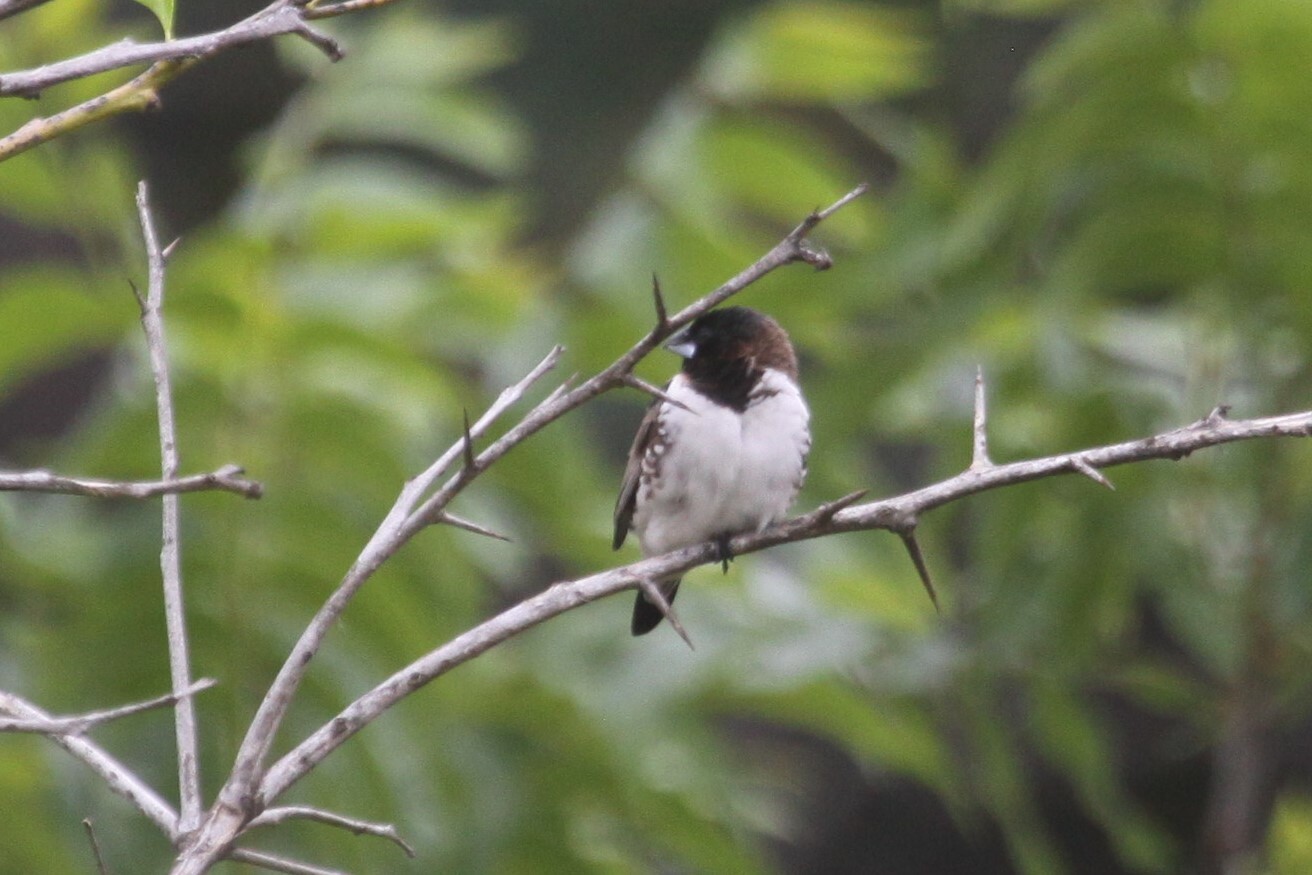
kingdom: Animalia
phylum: Chordata
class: Aves
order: Passeriformes
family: Estrildidae
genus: Lonchura
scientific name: Lonchura cucullata
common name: Bronze mannikin
